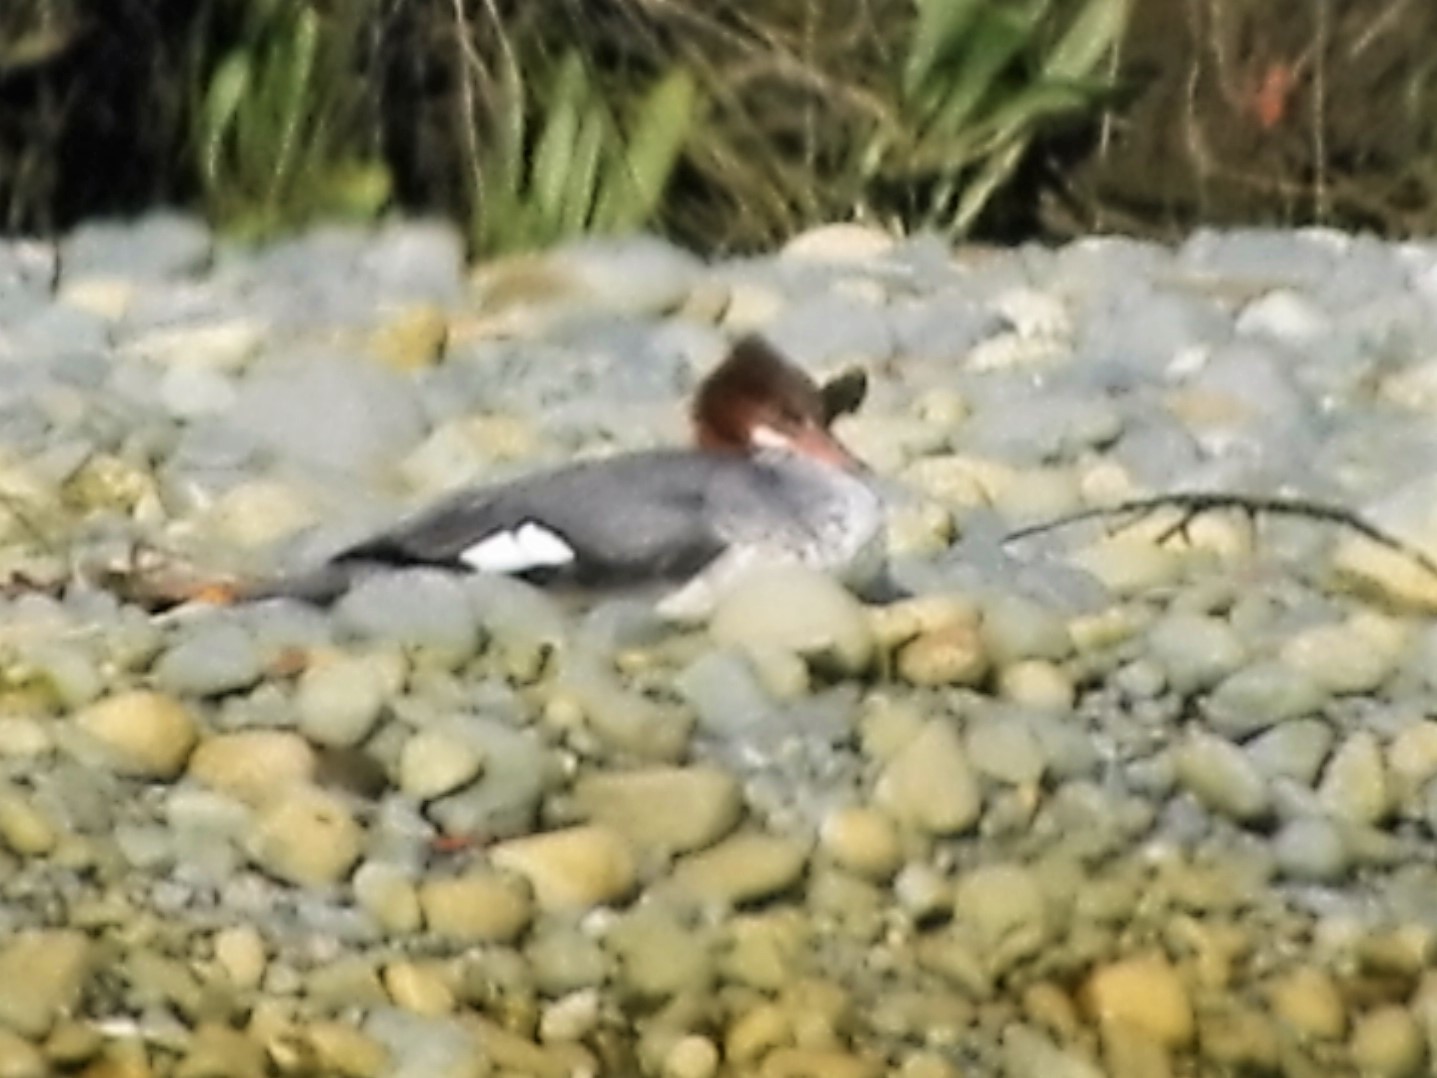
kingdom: Animalia
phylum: Chordata
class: Aves
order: Anseriformes
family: Anatidae
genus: Mergus
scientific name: Mergus merganser
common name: Common merganser
